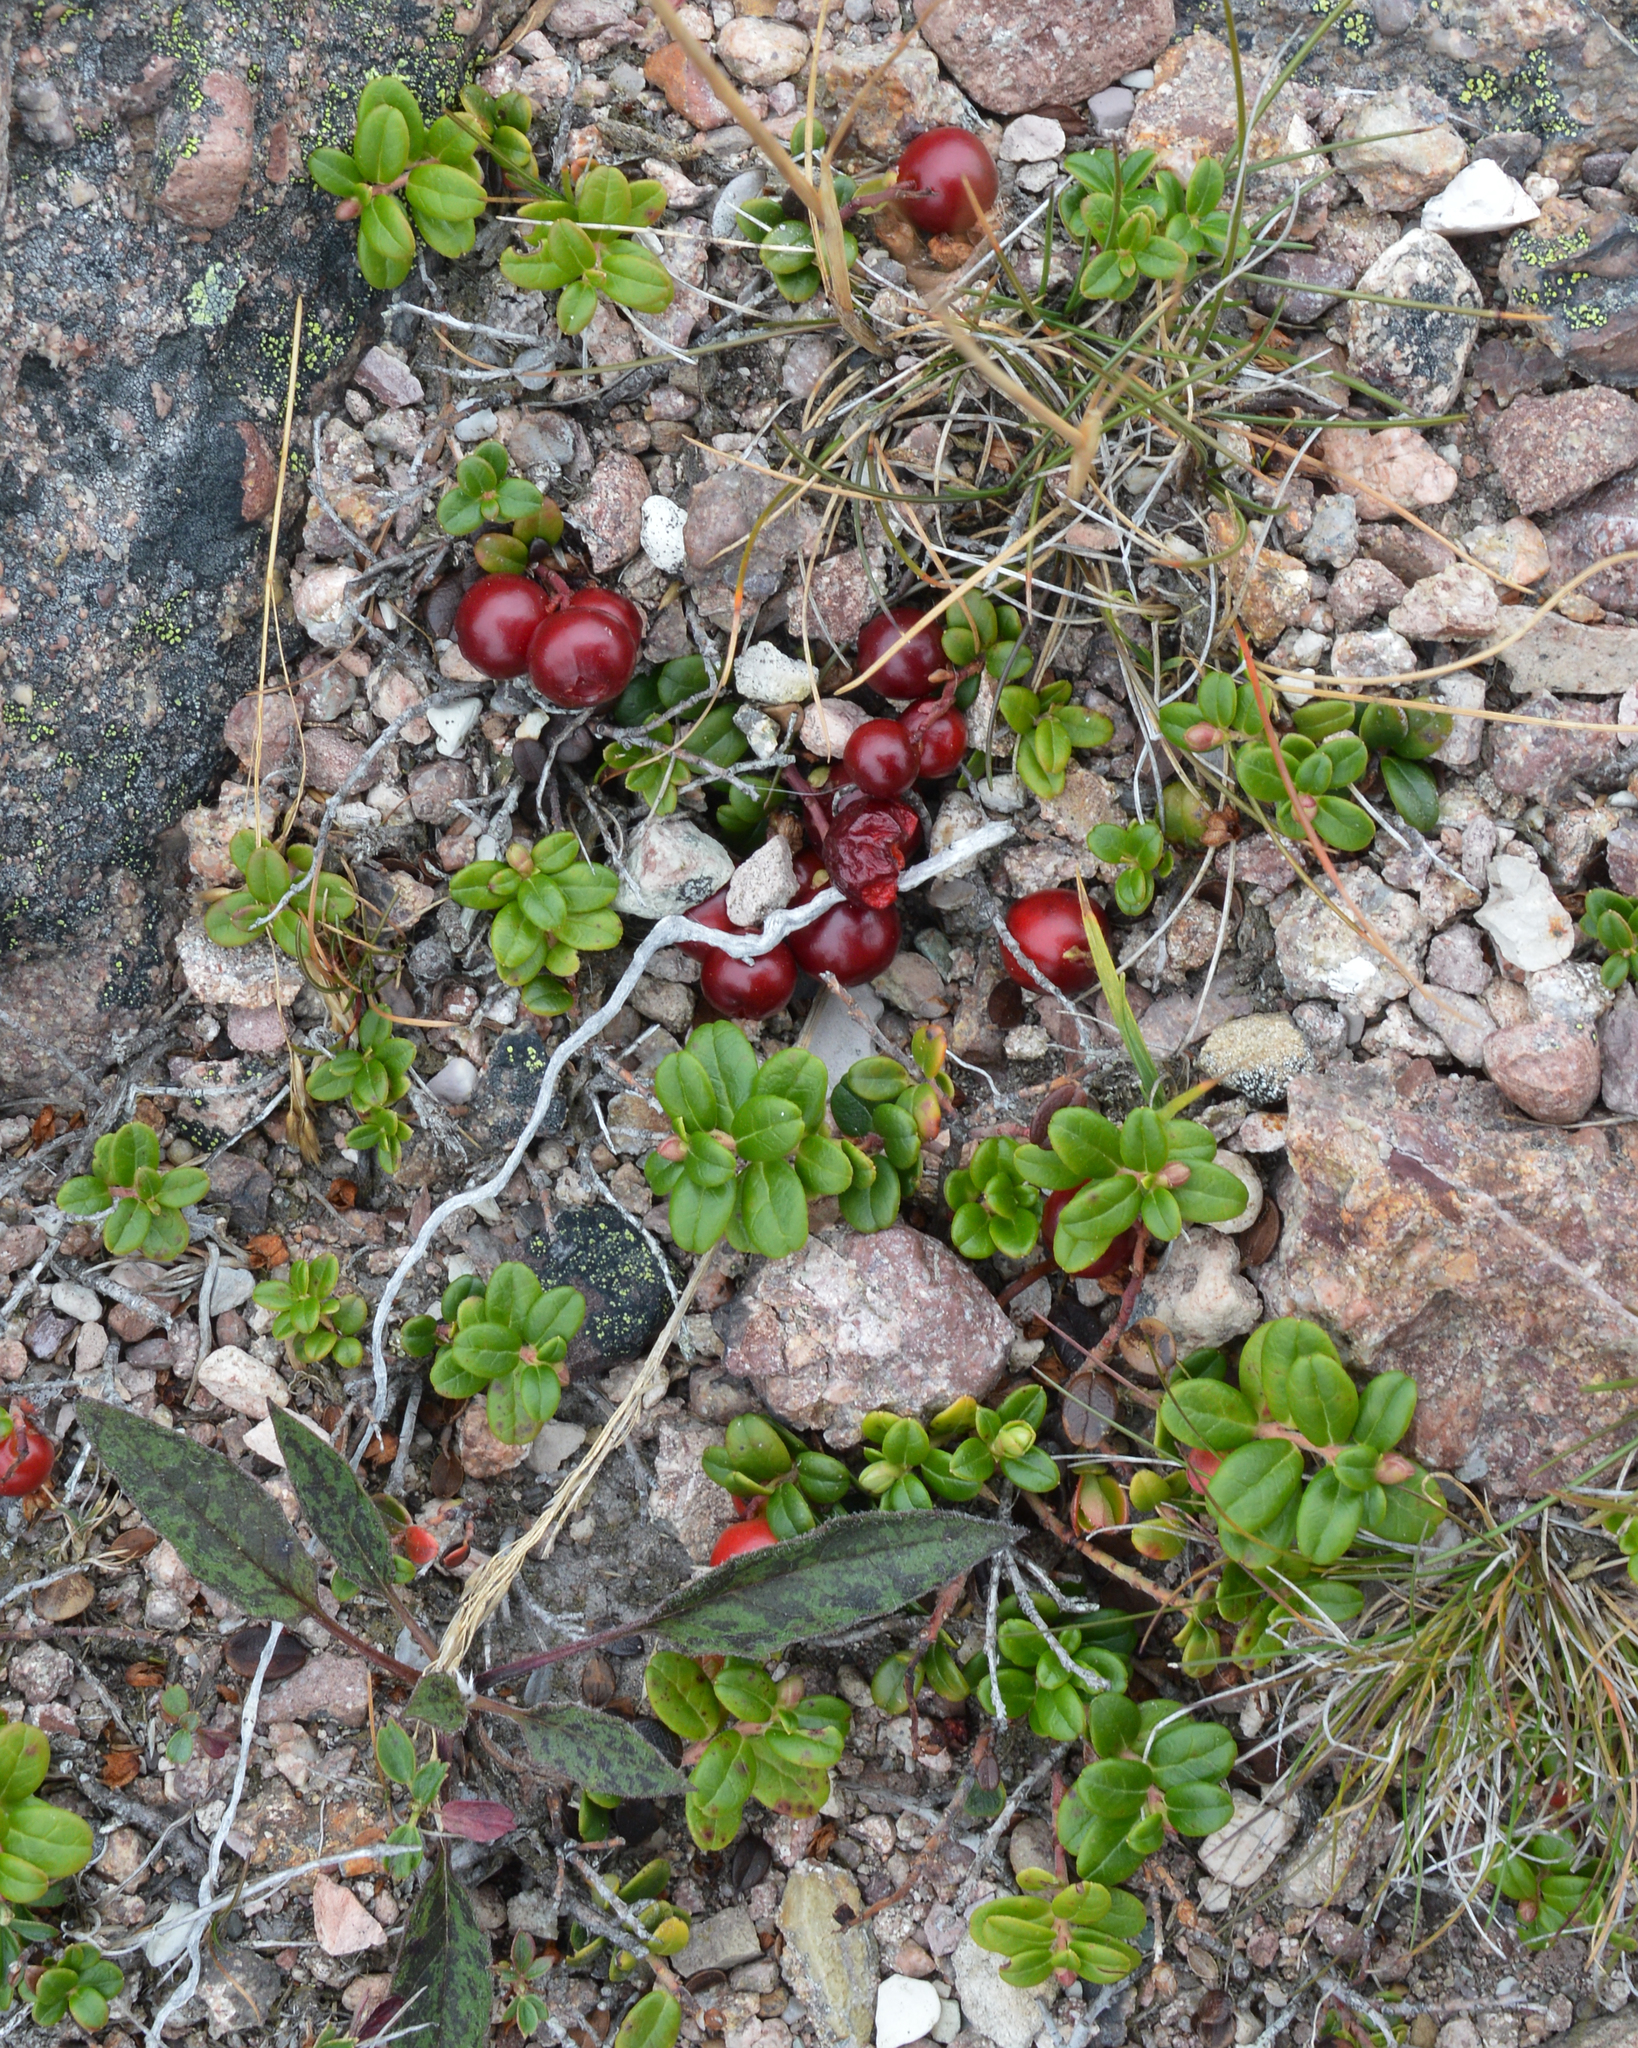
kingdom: Plantae
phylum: Tracheophyta
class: Magnoliopsida
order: Ericales
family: Ericaceae
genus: Vaccinium
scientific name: Vaccinium vitis-idaea
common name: Cowberry
